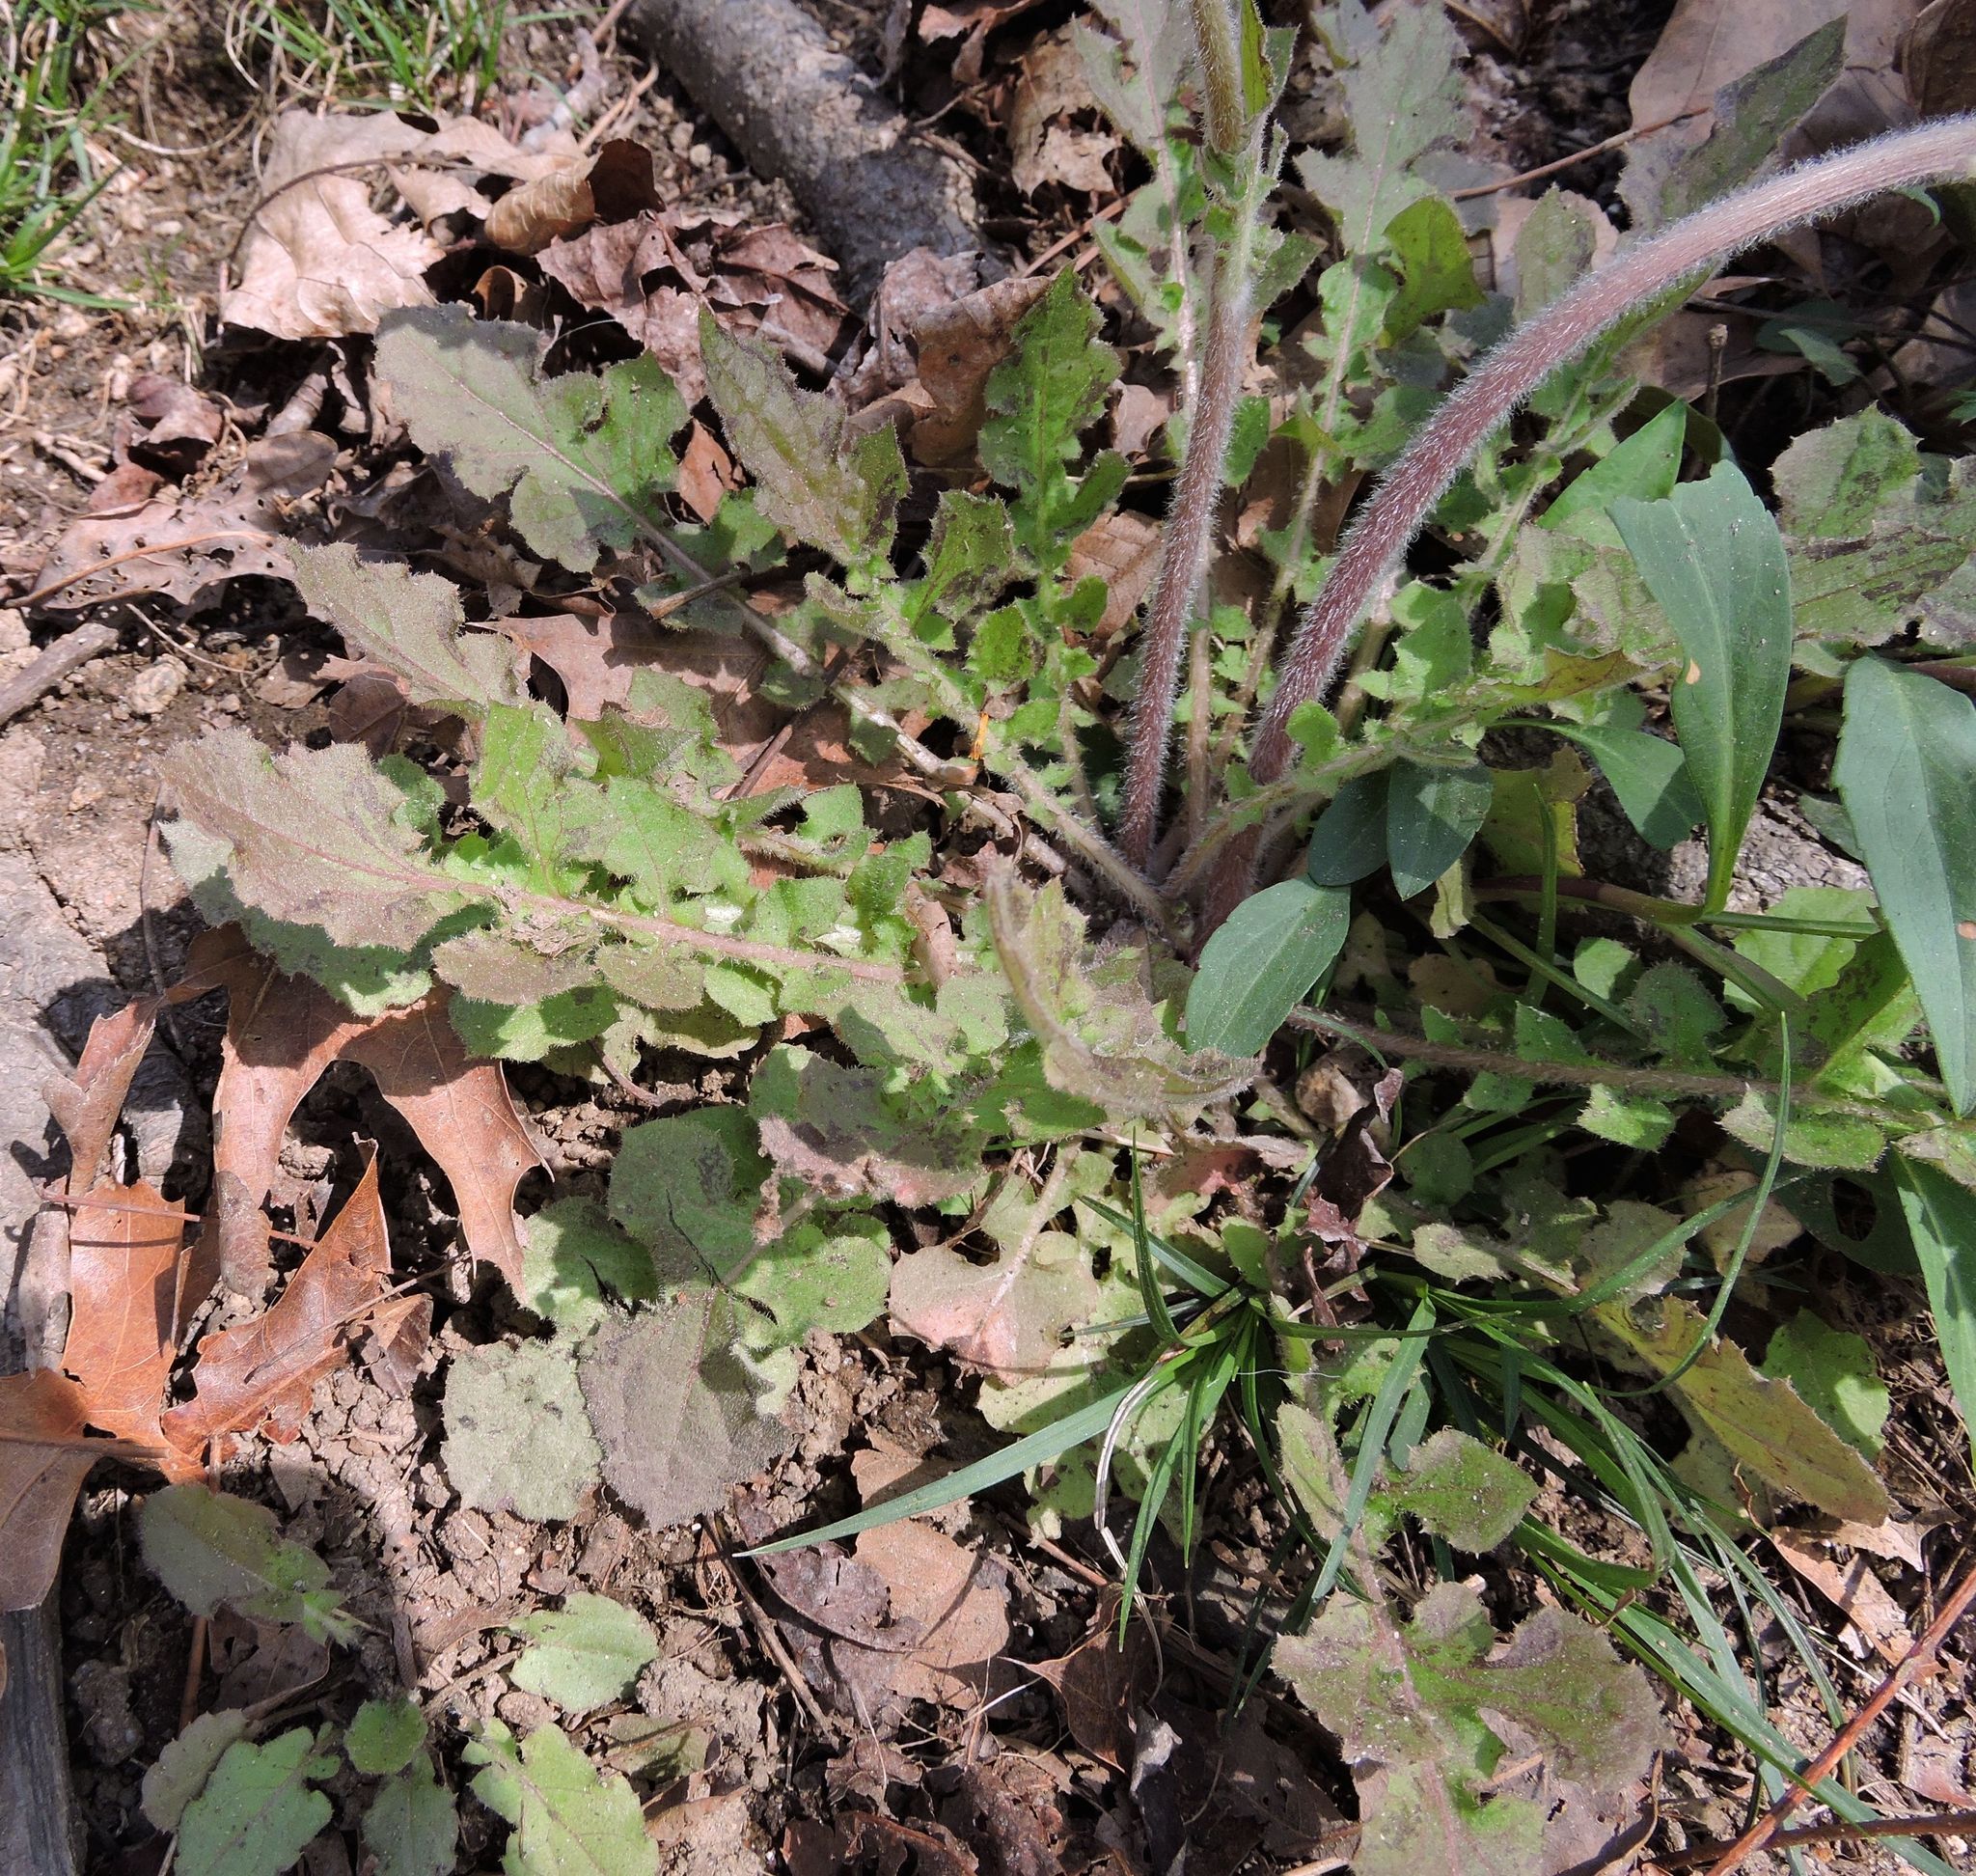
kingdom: Plantae
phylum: Tracheophyta
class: Magnoliopsida
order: Asterales
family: Asteraceae
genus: Sonchus
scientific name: Sonchus oleraceus
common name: Common sowthistle
